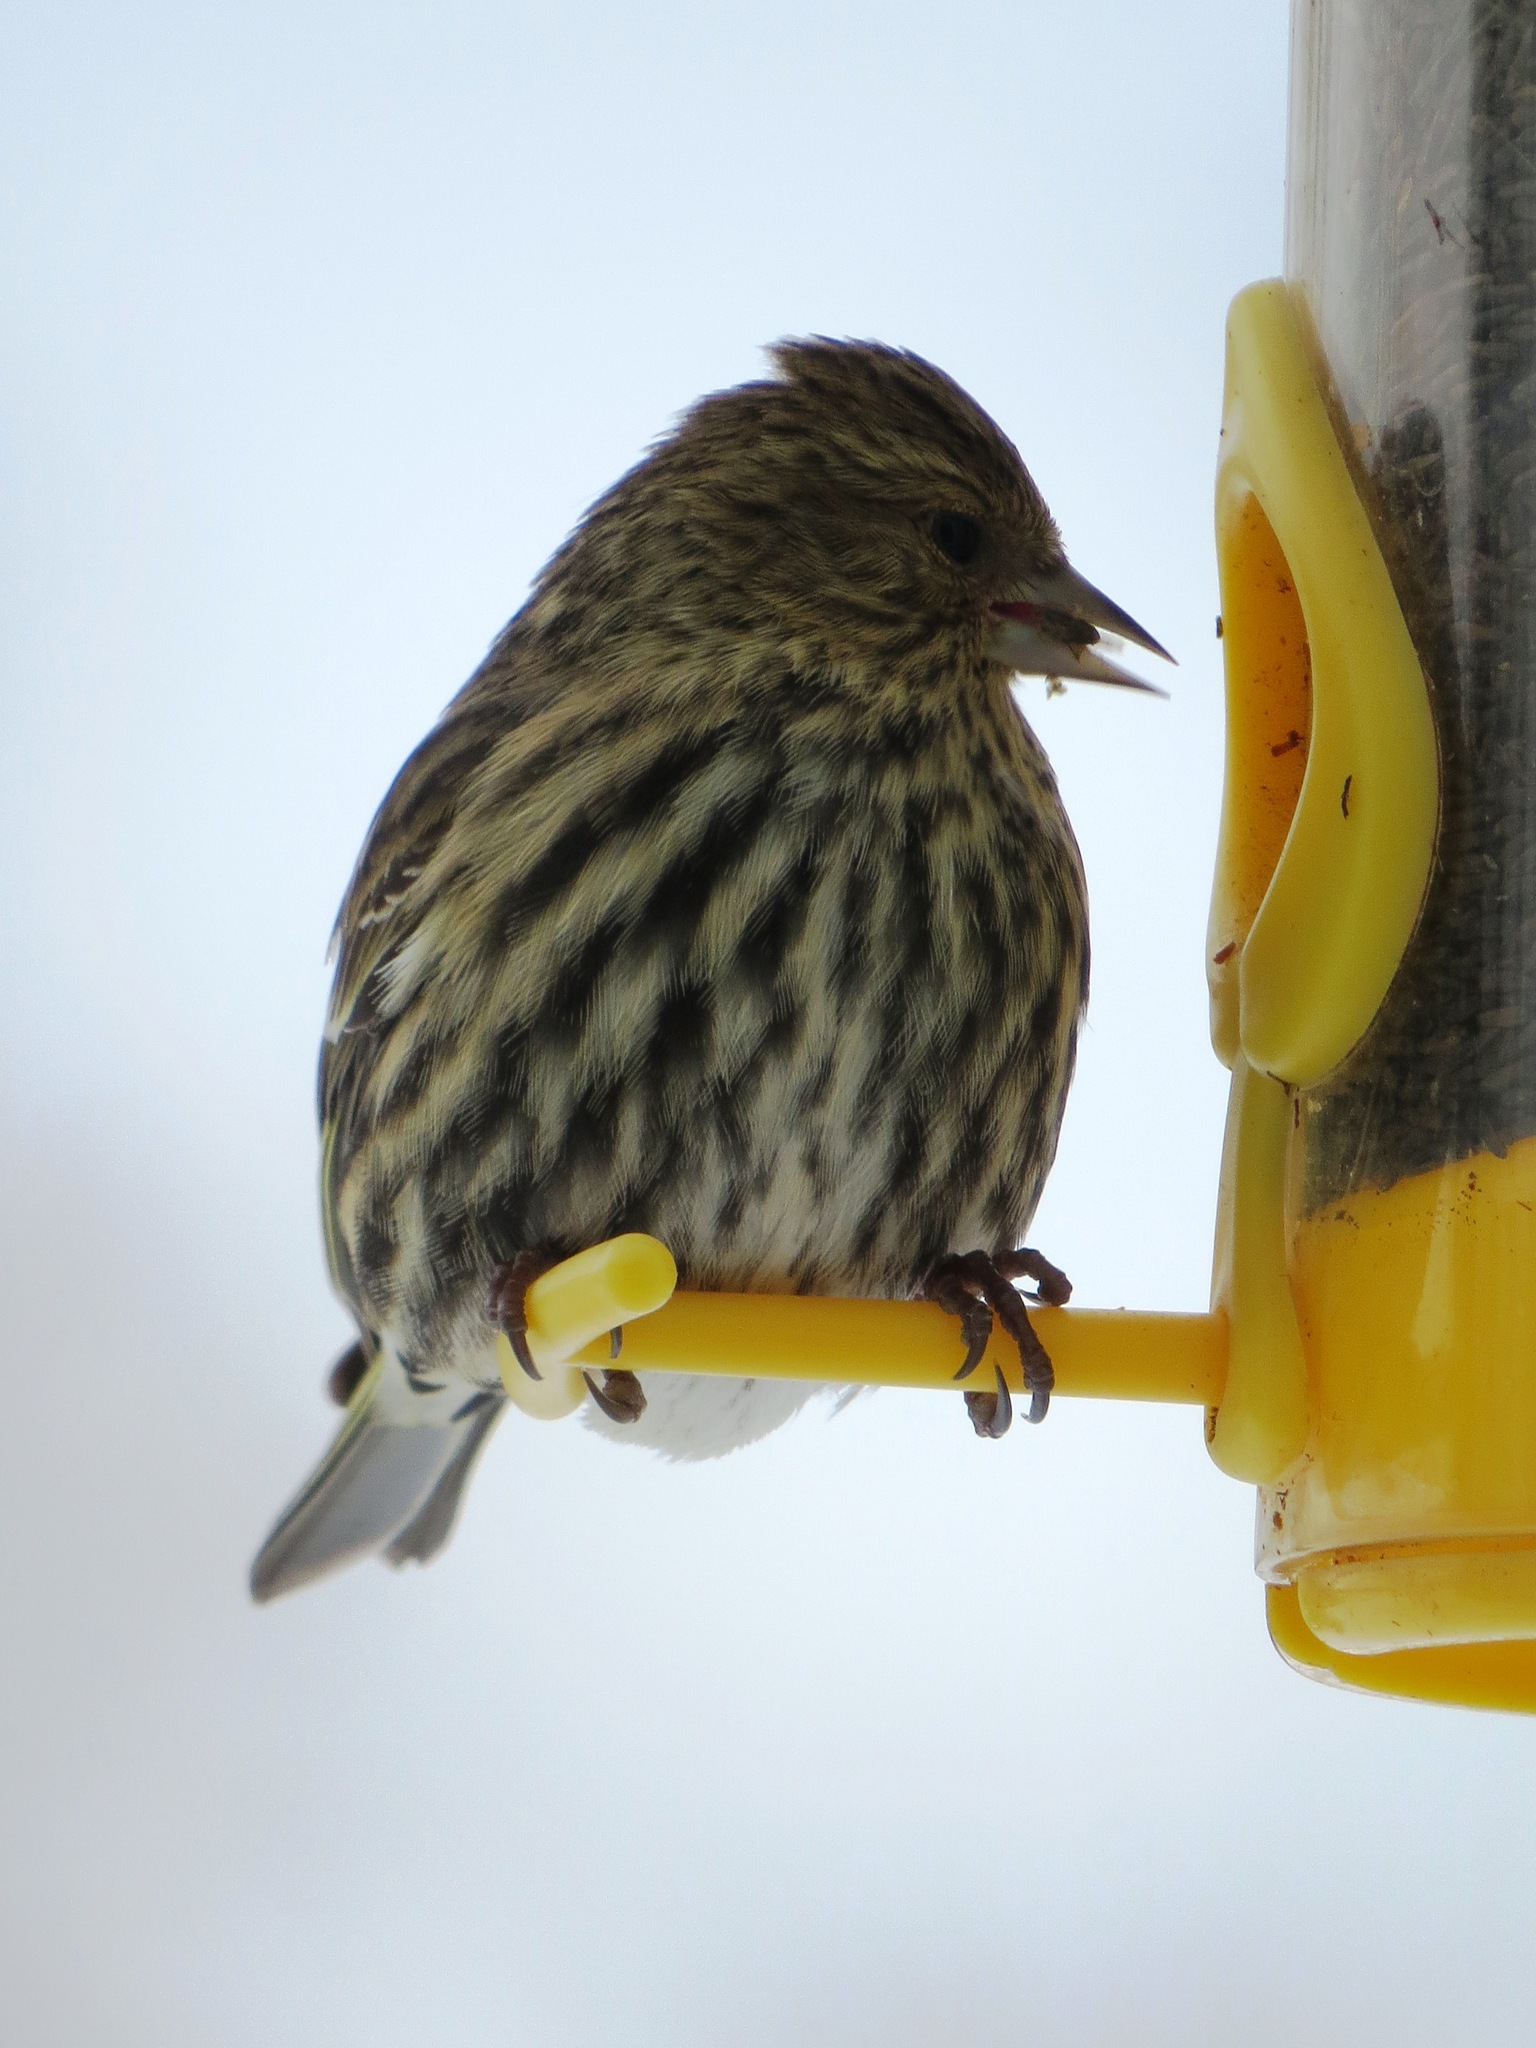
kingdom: Animalia
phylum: Chordata
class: Aves
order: Passeriformes
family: Fringillidae
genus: Spinus
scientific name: Spinus pinus
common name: Pine siskin
